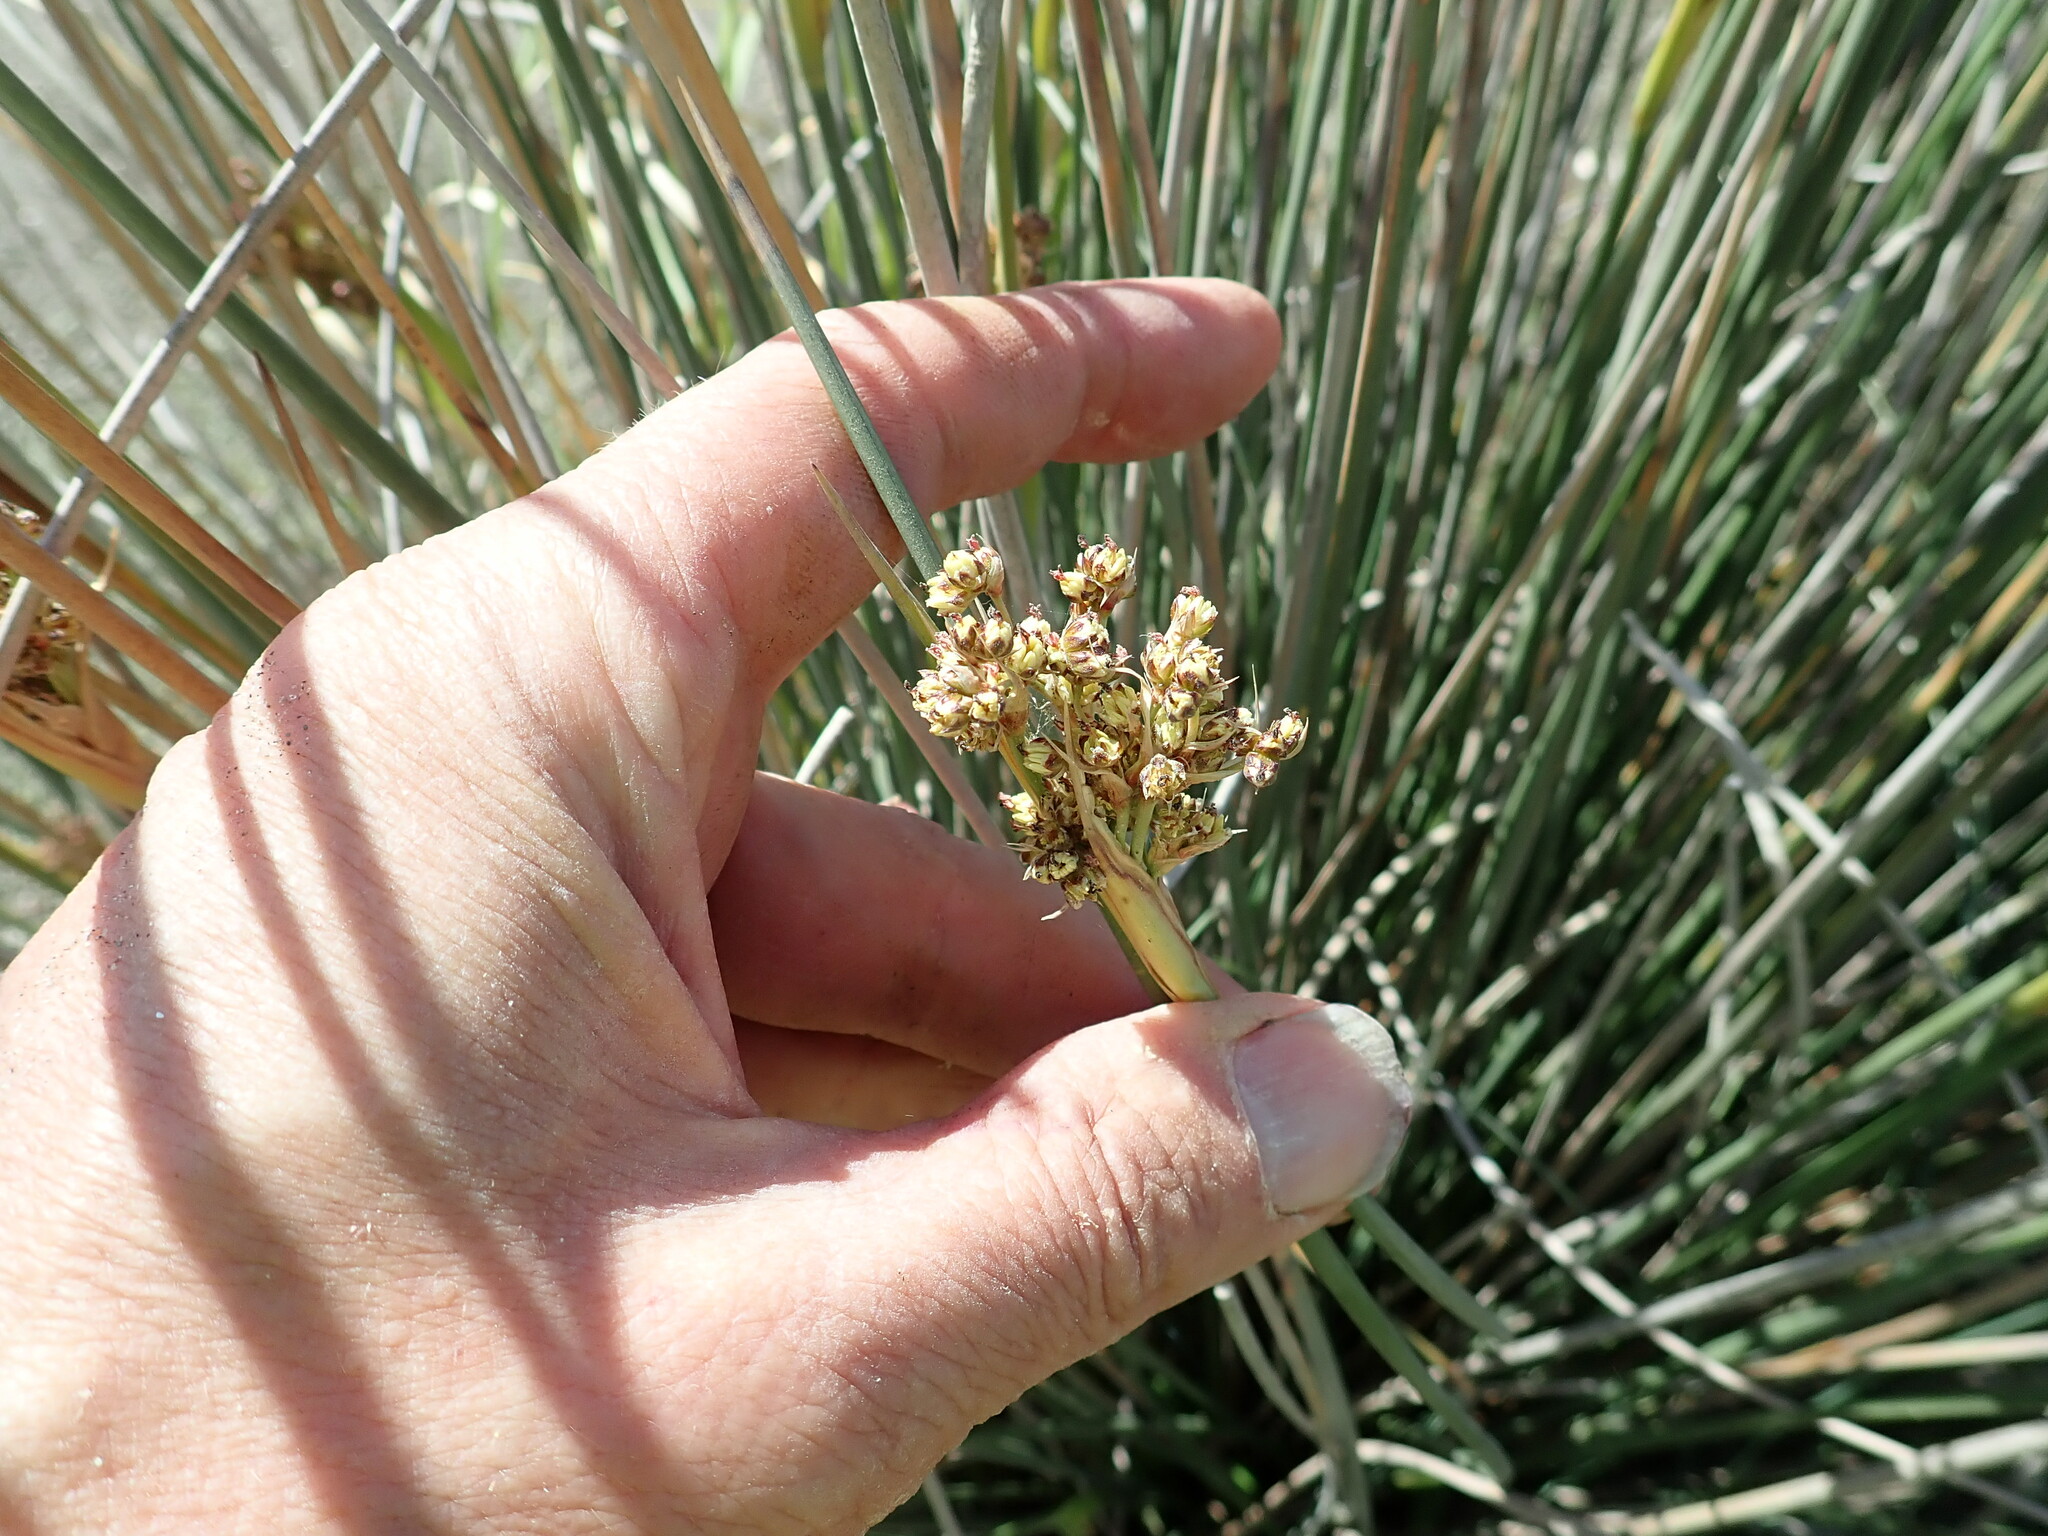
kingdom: Plantae
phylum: Tracheophyta
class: Liliopsida
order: Poales
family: Juncaceae
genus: Juncus
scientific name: Juncus acutus
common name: Sharp rush
